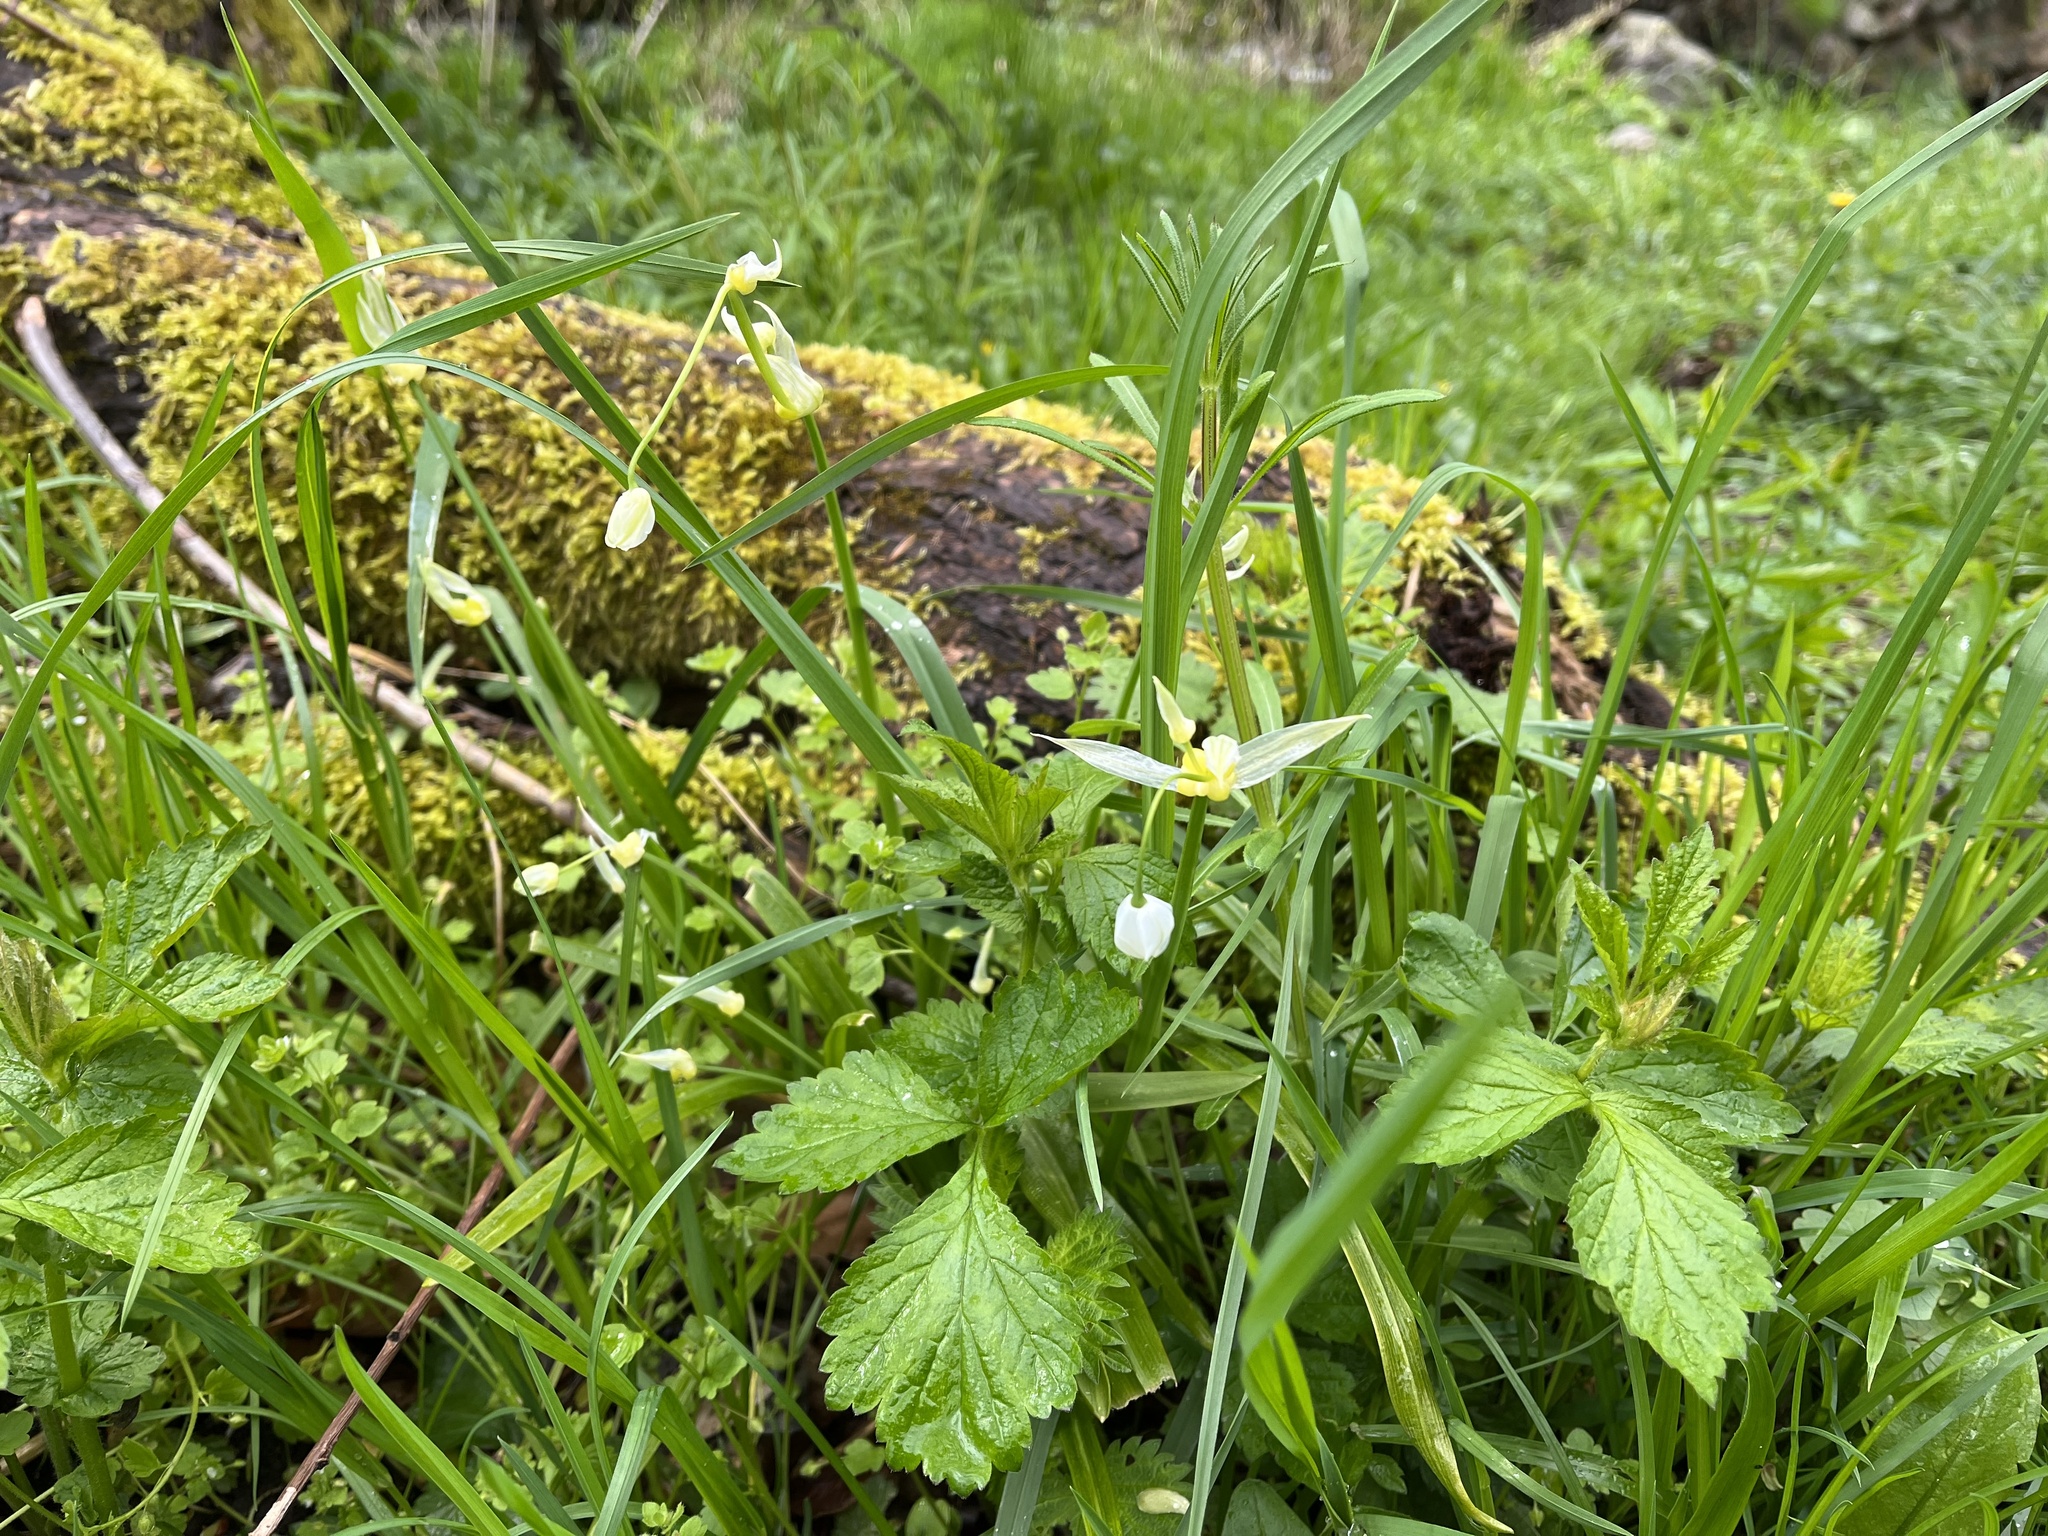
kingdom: Plantae
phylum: Tracheophyta
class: Liliopsida
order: Asparagales
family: Amaryllidaceae
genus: Allium
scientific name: Allium paradoxum
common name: Few-flowered garlic
